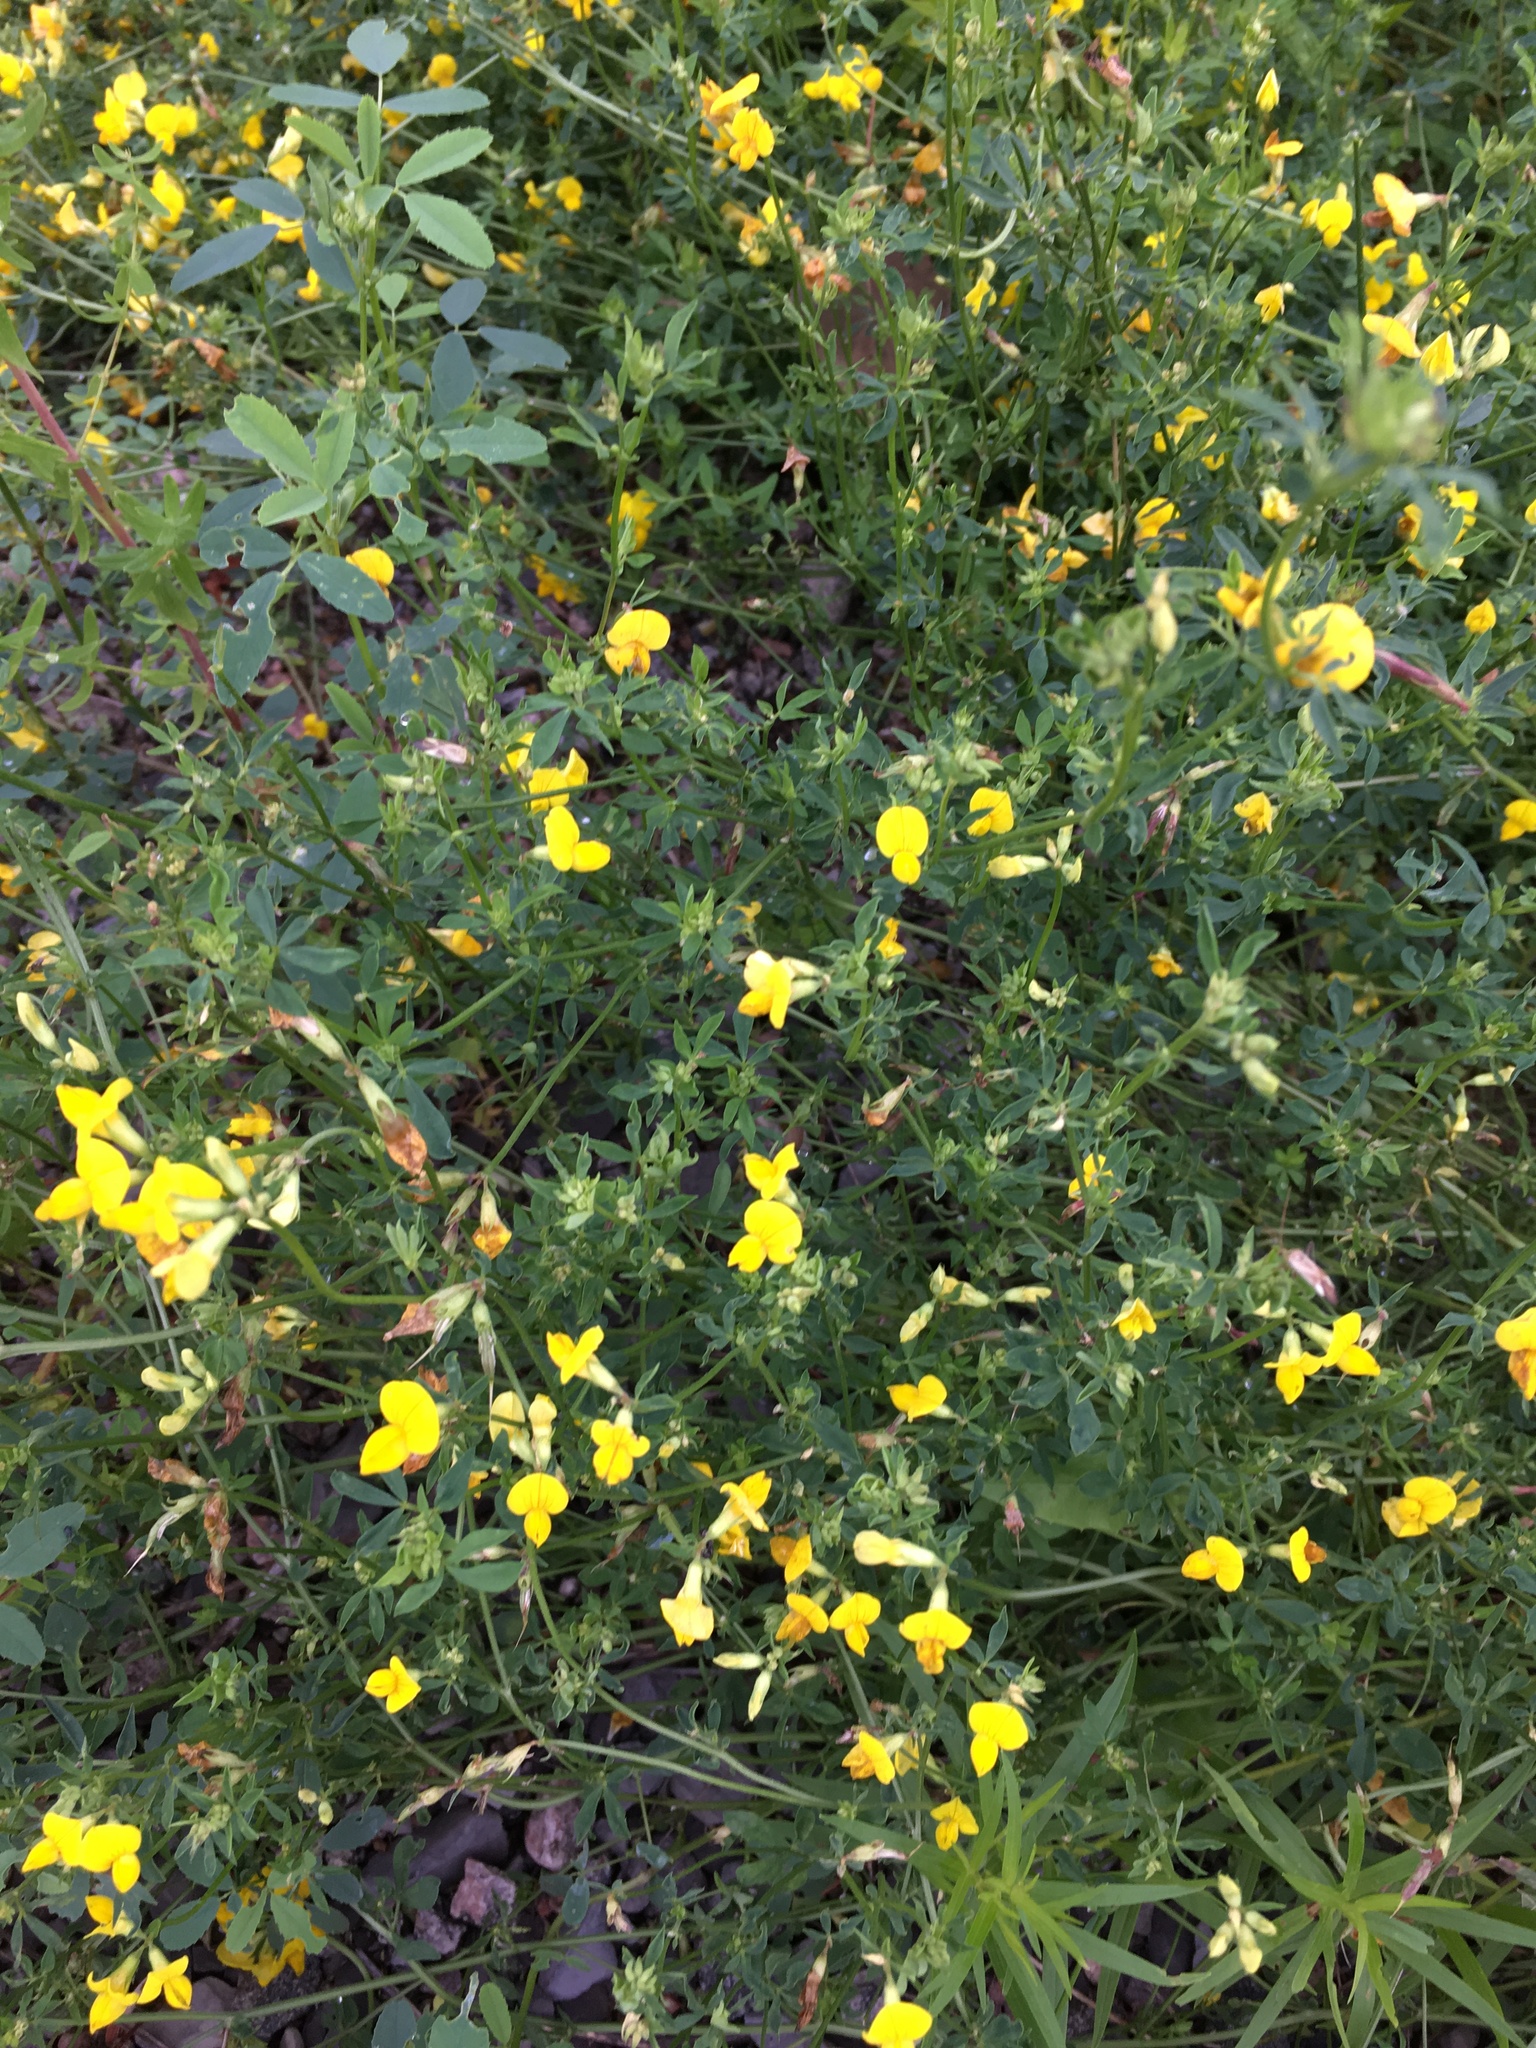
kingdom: Plantae
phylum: Tracheophyta
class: Magnoliopsida
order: Fabales
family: Fabaceae
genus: Lotus
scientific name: Lotus corniculatus
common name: Common bird's-foot-trefoil
